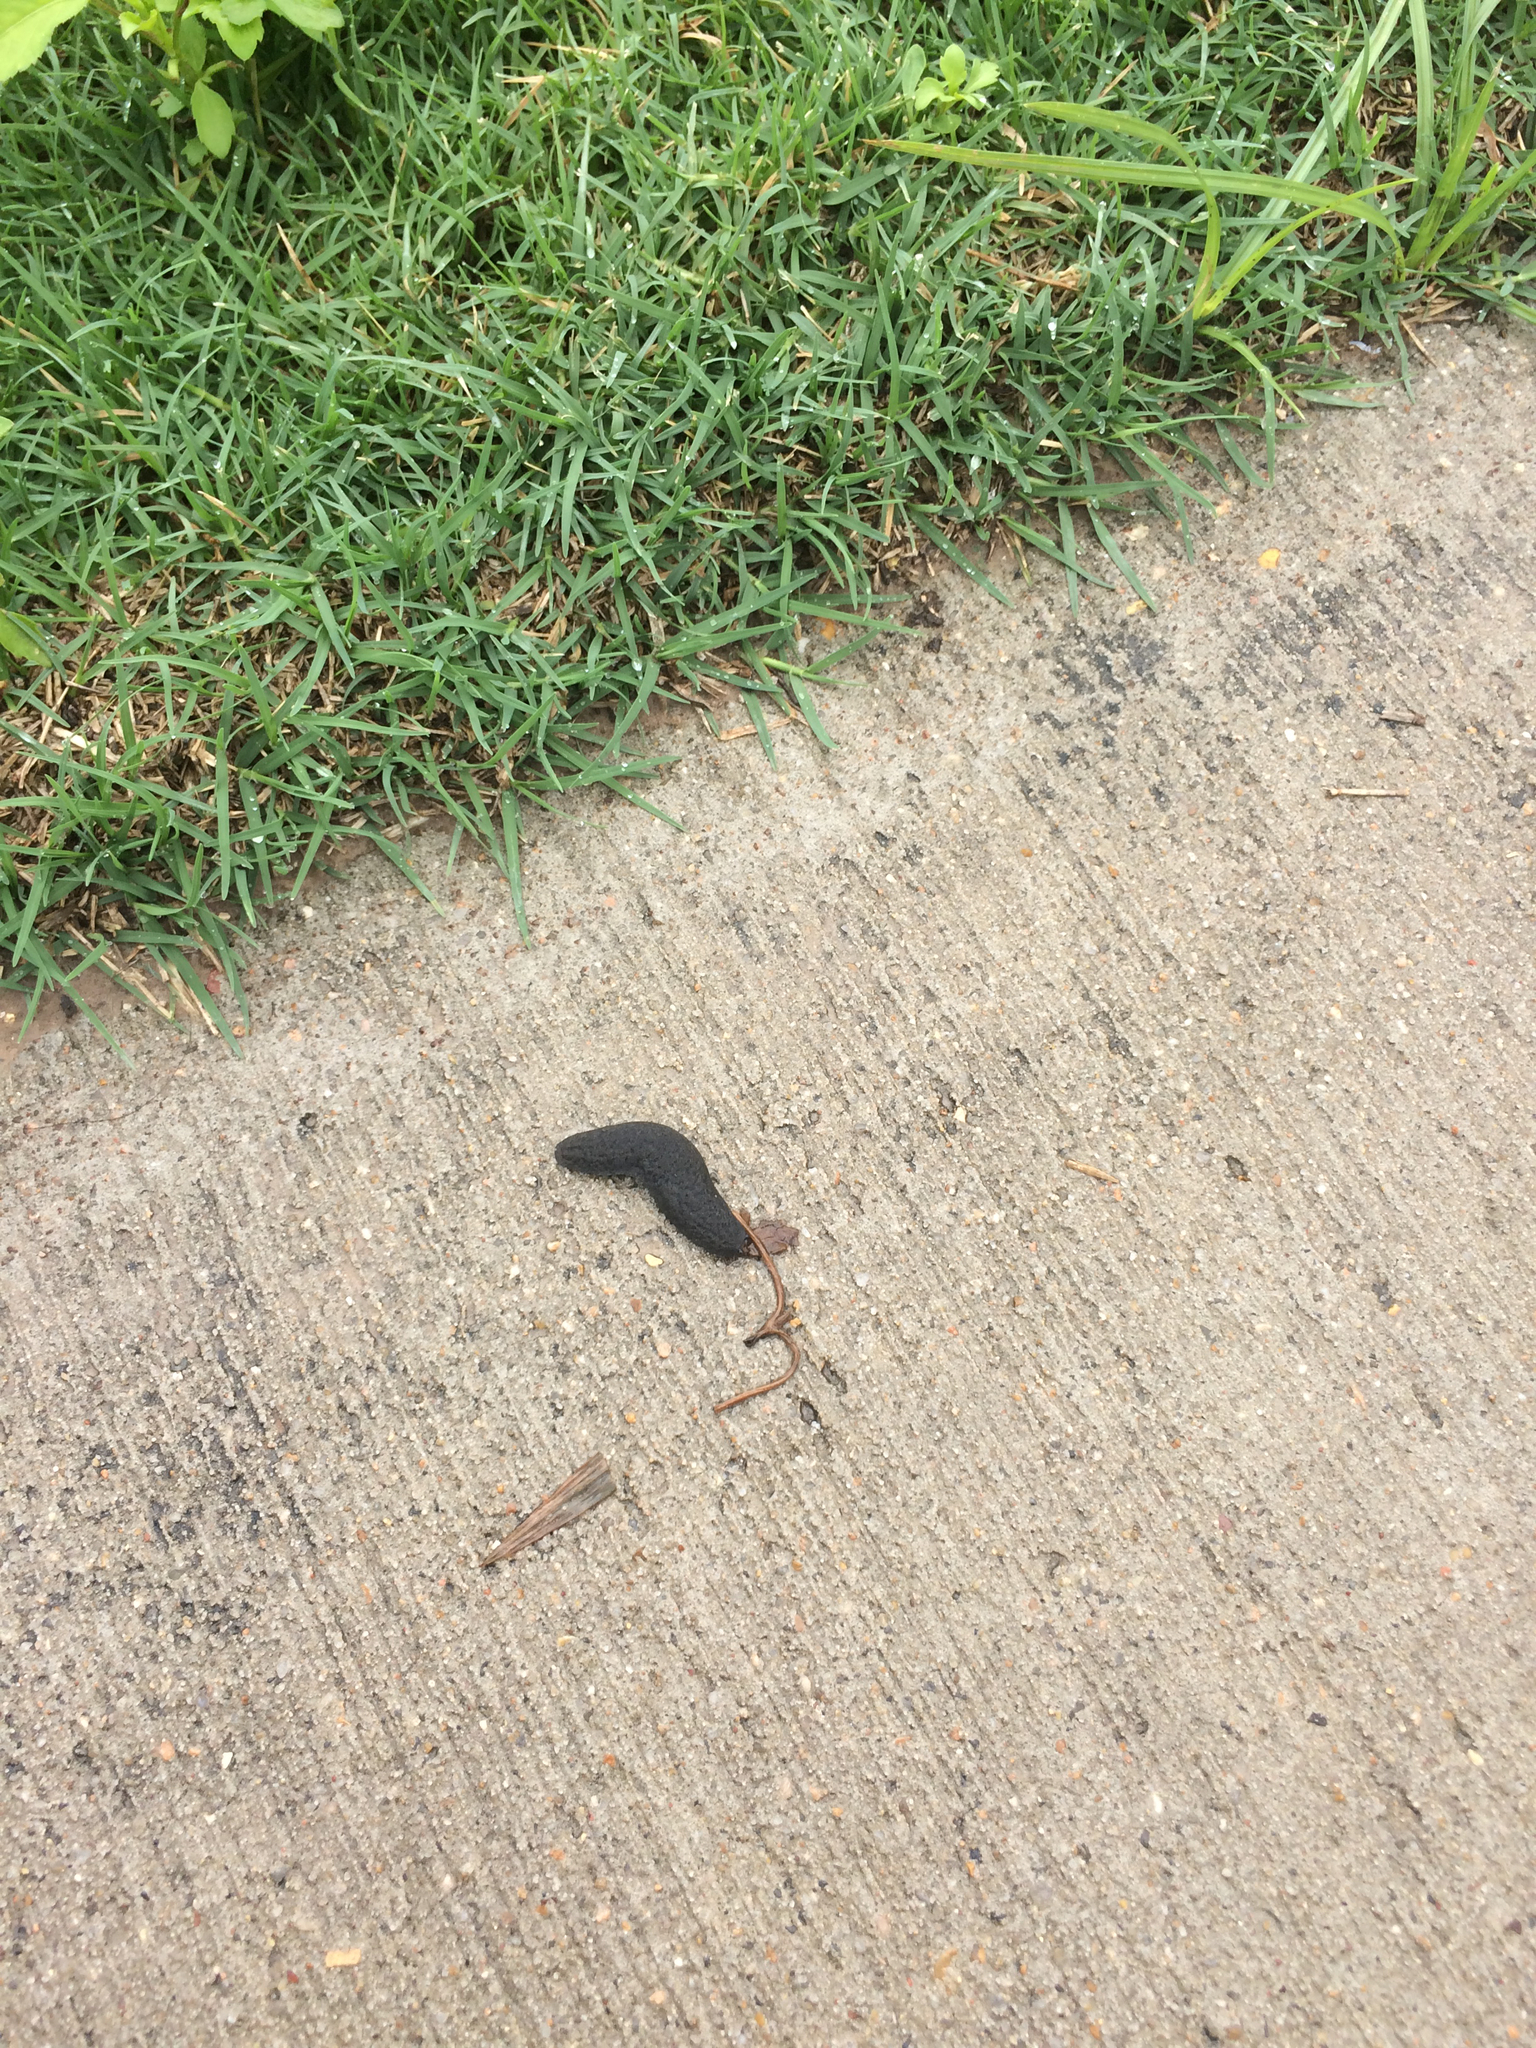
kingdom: Animalia
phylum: Mollusca
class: Gastropoda
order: Systellommatophora
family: Veronicellidae
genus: Belocaulus
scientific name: Belocaulus angustipes
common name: Black velvet leatherleaf slug
